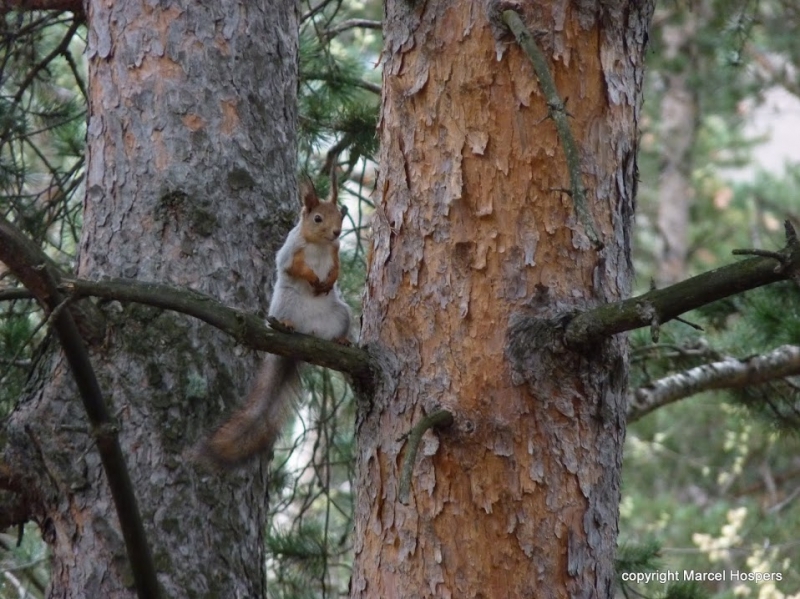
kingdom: Animalia
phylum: Chordata
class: Mammalia
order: Rodentia
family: Sciuridae
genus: Sciurus
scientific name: Sciurus vulgaris
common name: Eurasian red squirrel
